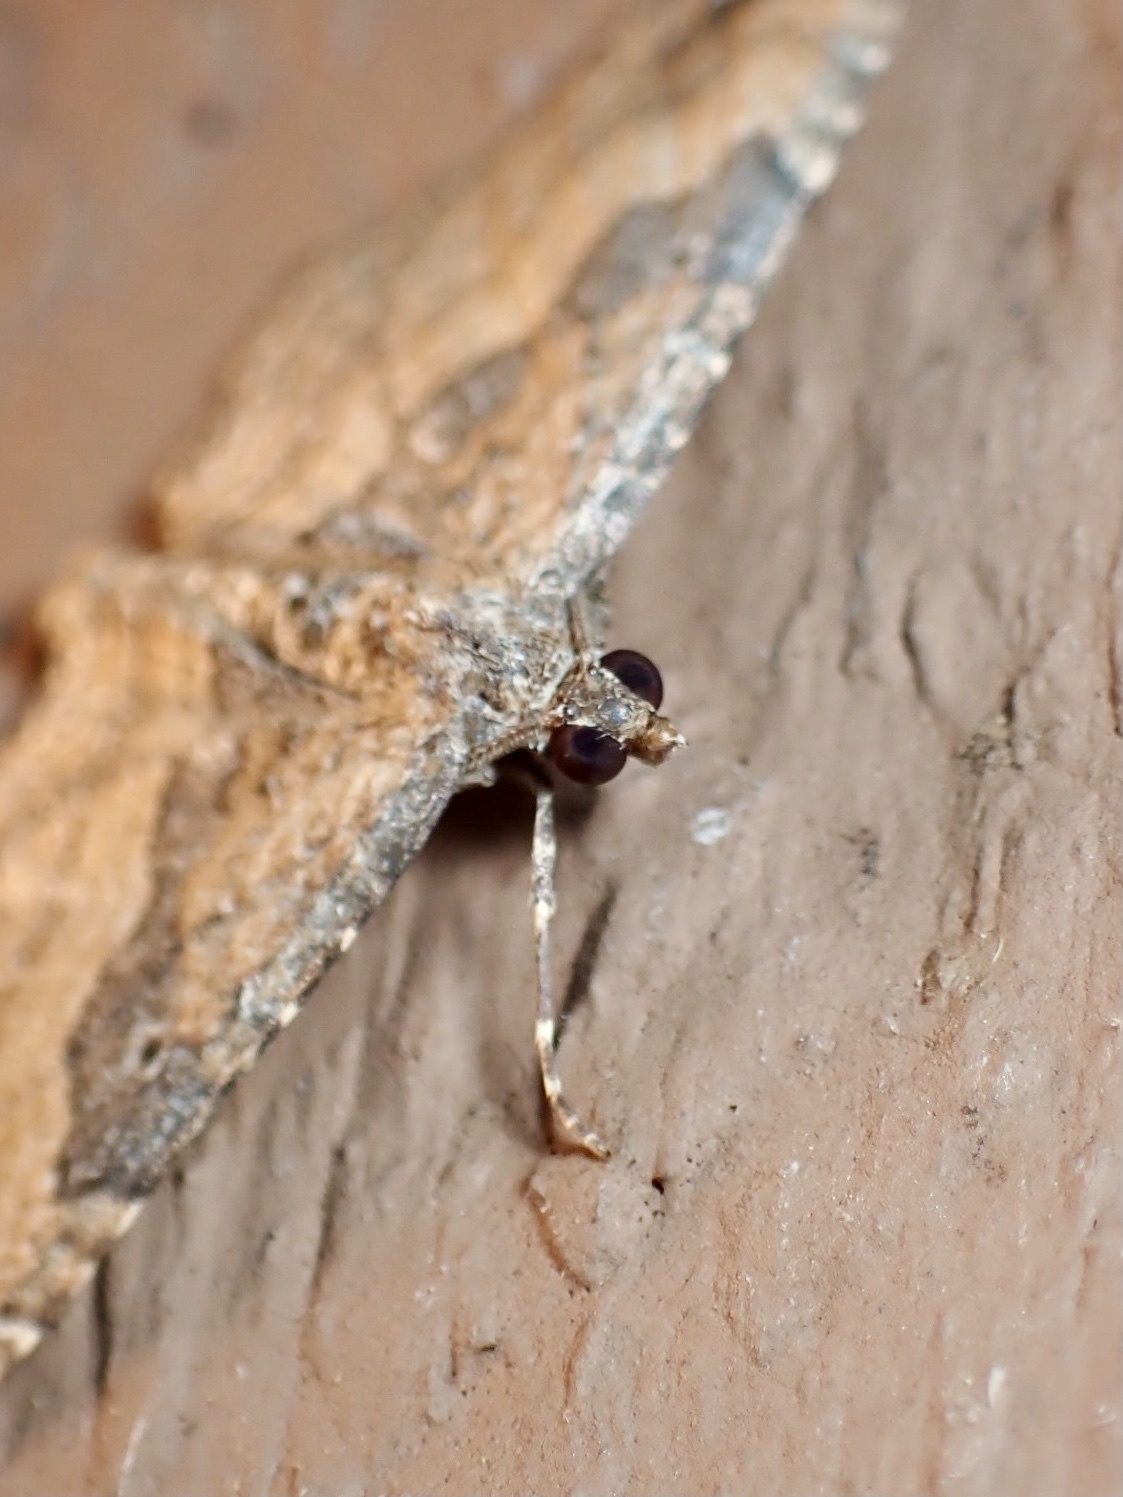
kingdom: Animalia
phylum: Arthropoda
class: Insecta
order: Lepidoptera
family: Geometridae
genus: Orthonama
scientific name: Orthonama obstipata
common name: The gem
